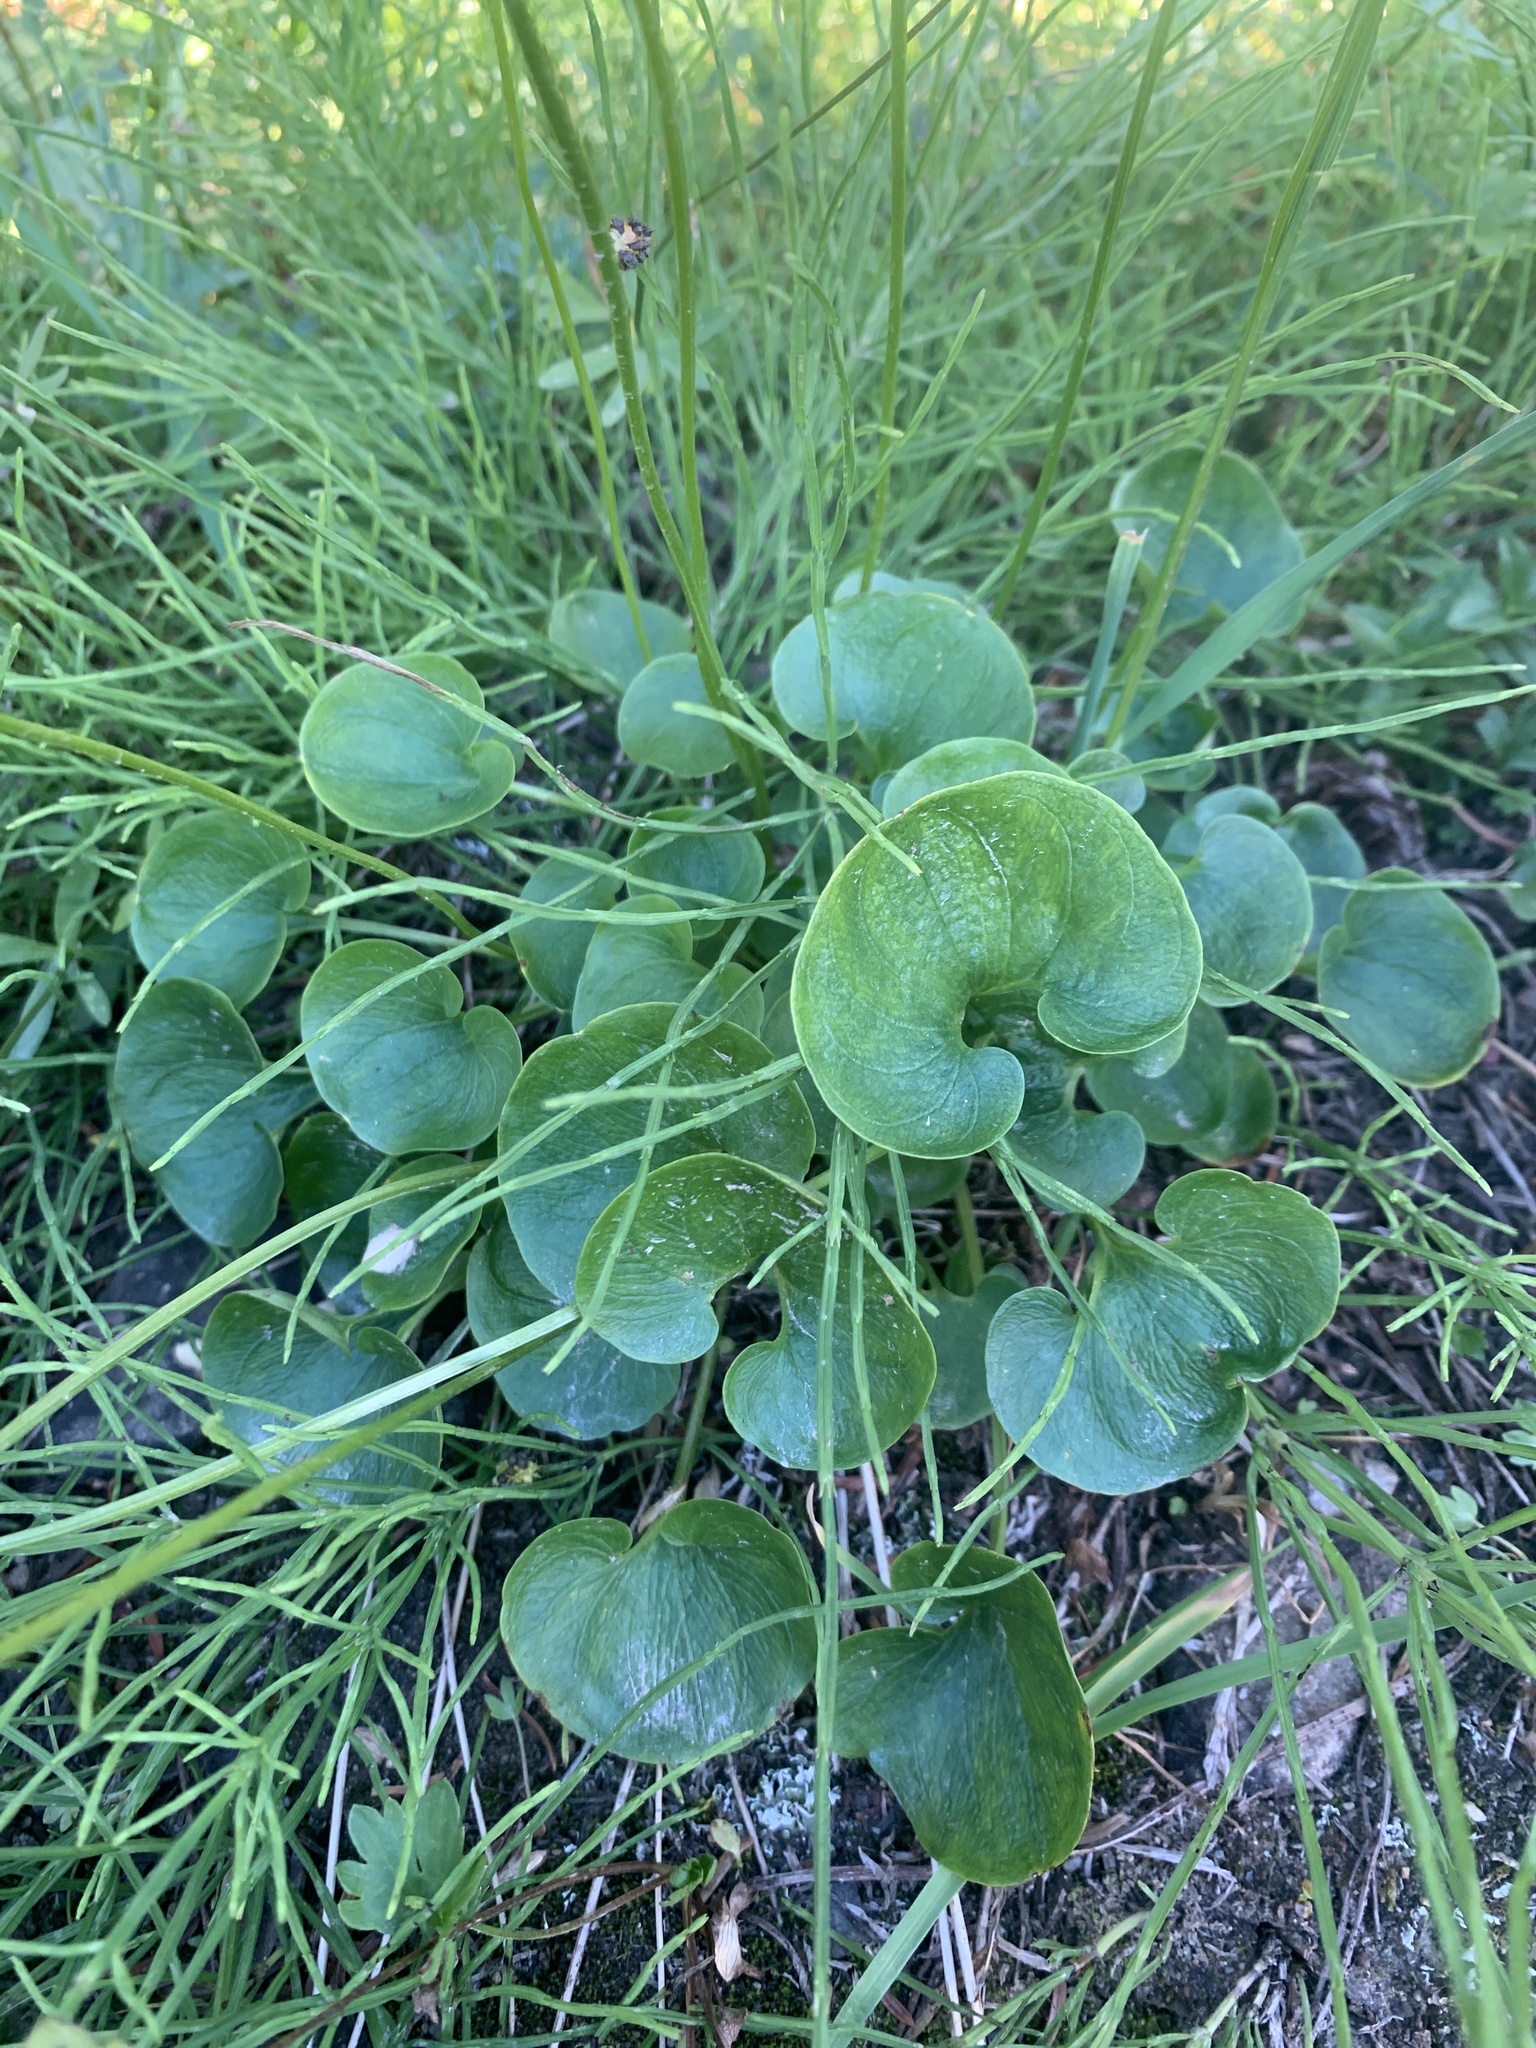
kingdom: Plantae
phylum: Tracheophyta
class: Magnoliopsida
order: Celastrales
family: Parnassiaceae
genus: Parnassia
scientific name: Parnassia fimbriata
